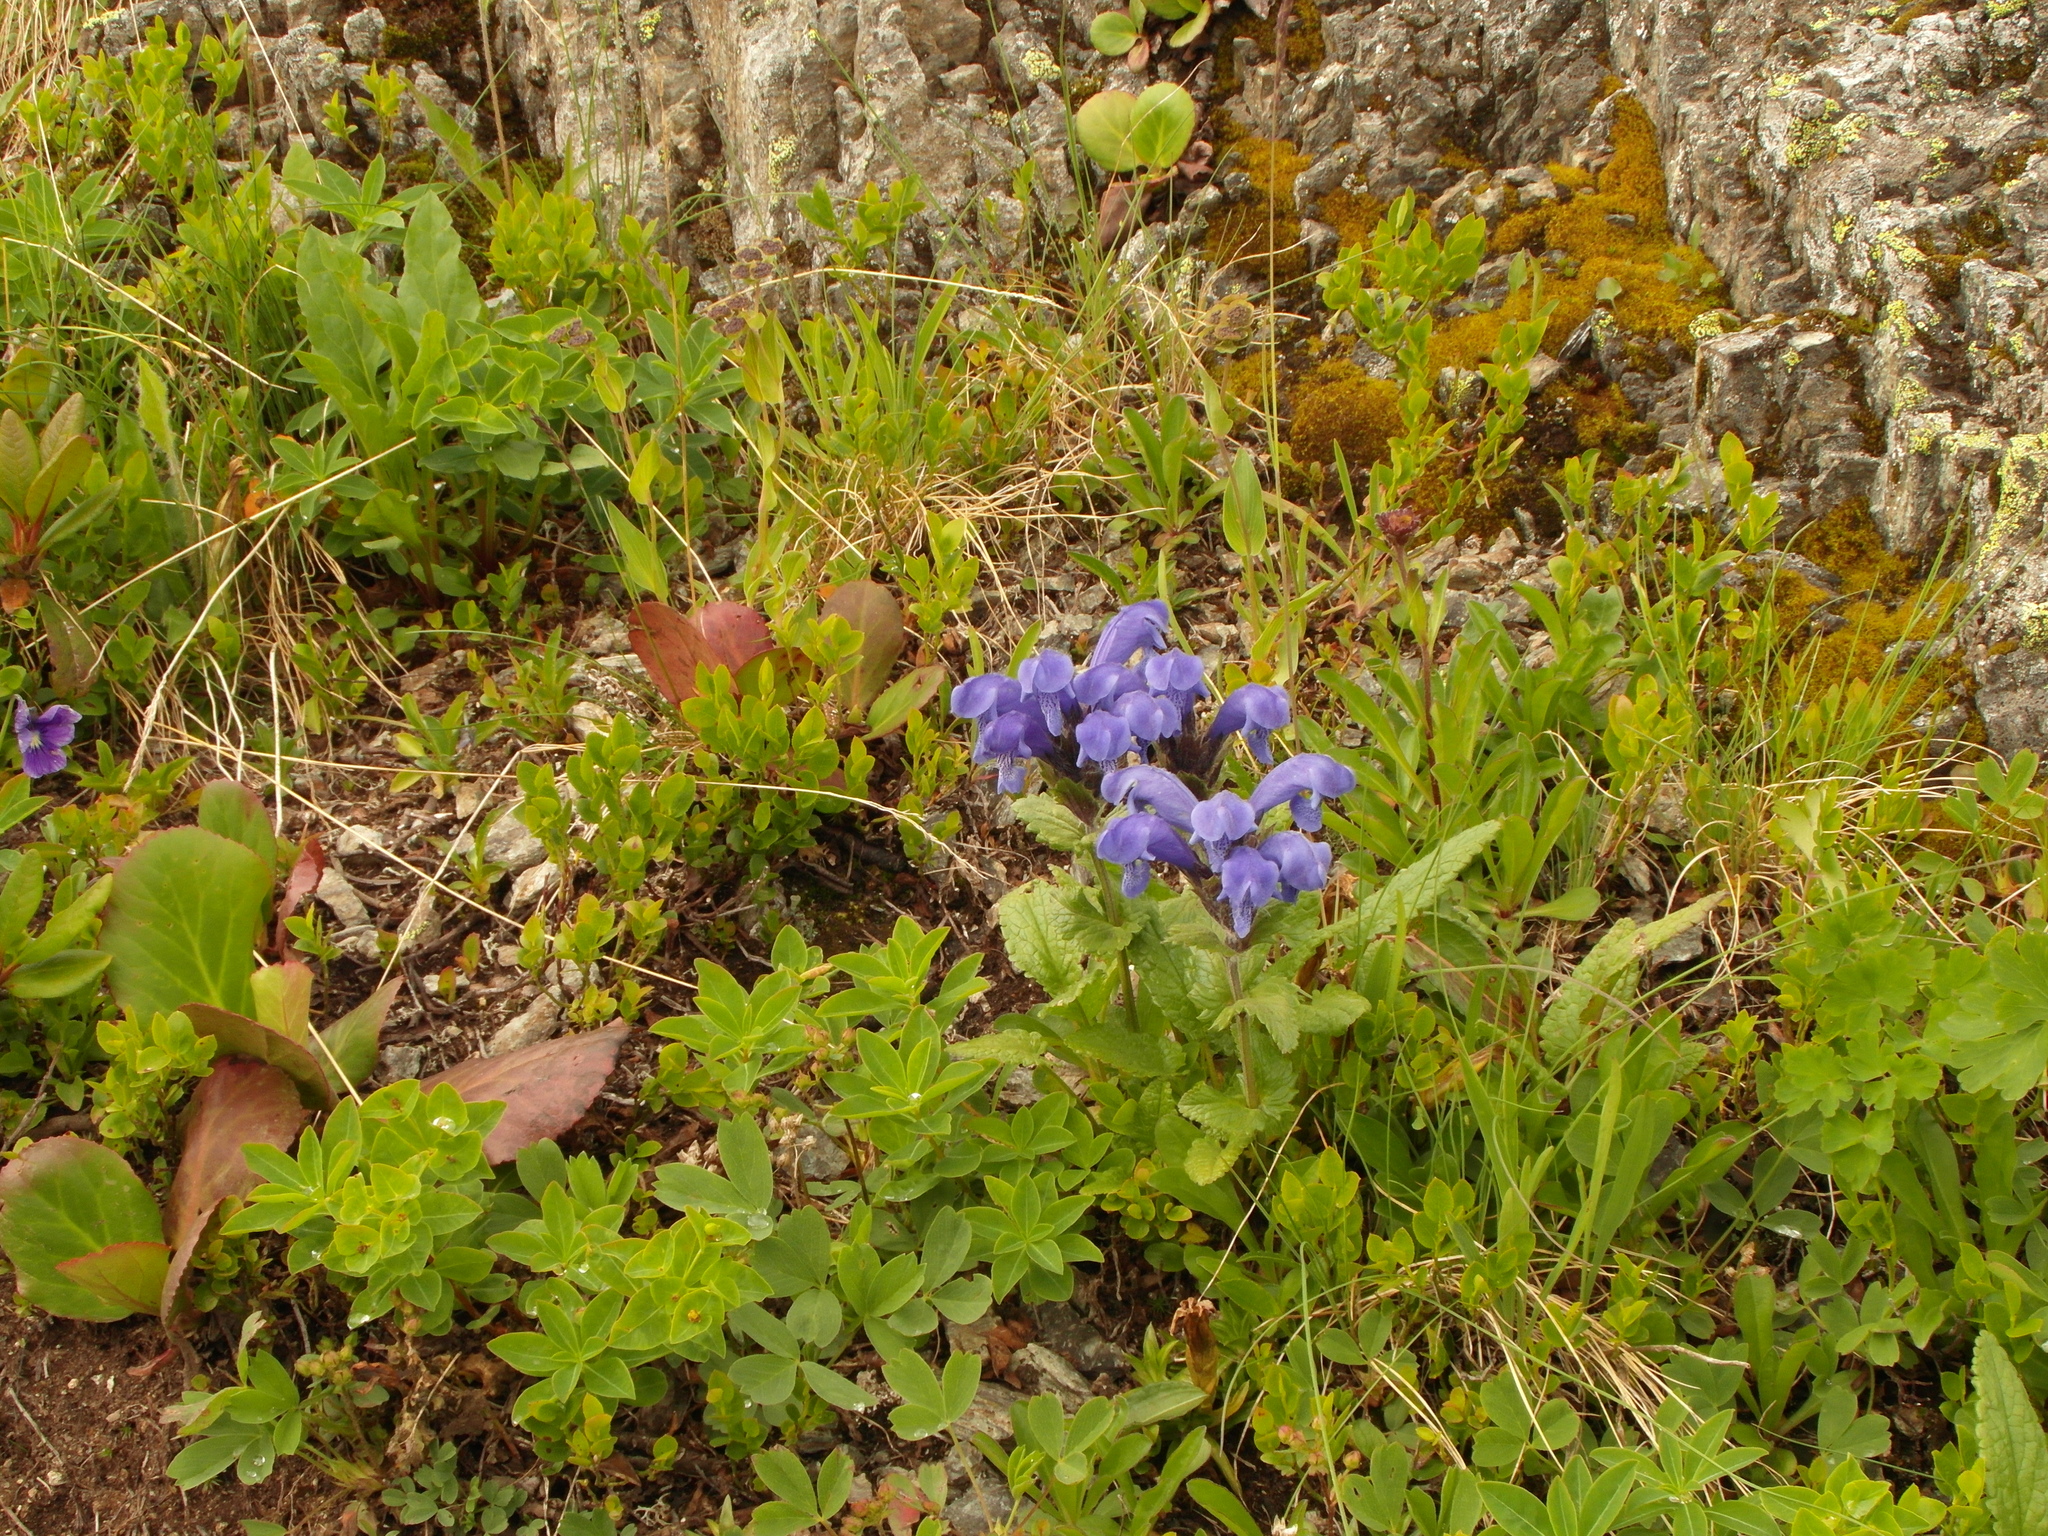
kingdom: Plantae
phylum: Tracheophyta
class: Magnoliopsida
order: Lamiales
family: Lamiaceae
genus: Dracocephalum
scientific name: Dracocephalum grandiflorum
